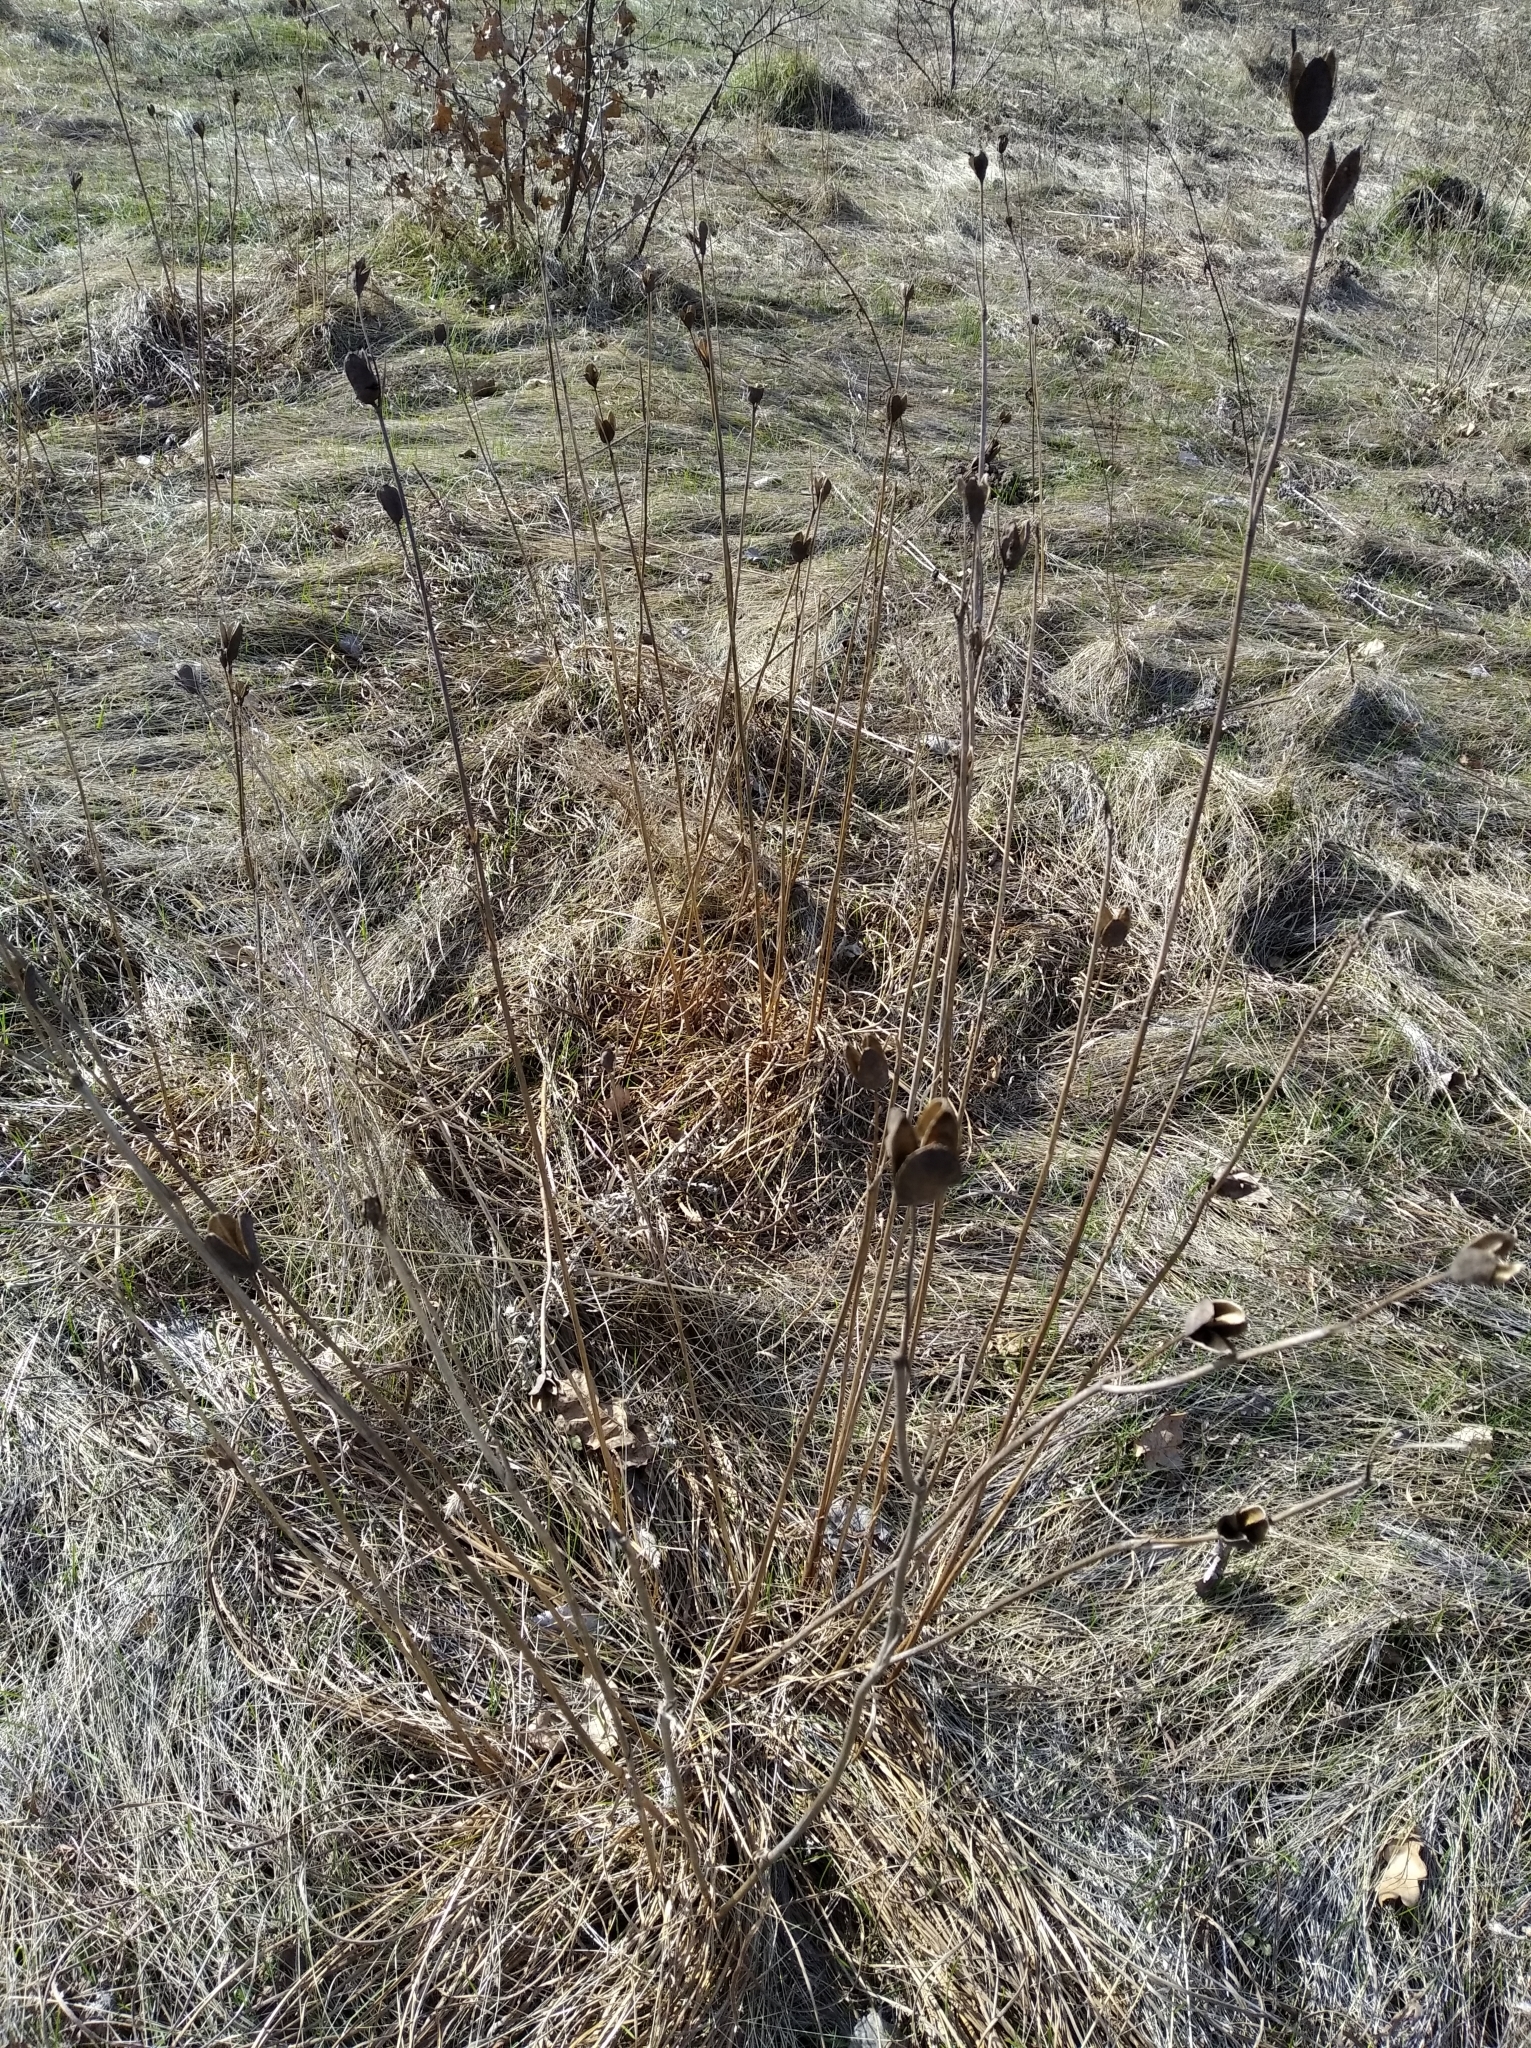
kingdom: Plantae
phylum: Tracheophyta
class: Liliopsida
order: Asparagales
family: Iridaceae
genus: Iris
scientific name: Iris sibirica
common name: Siberian iris
